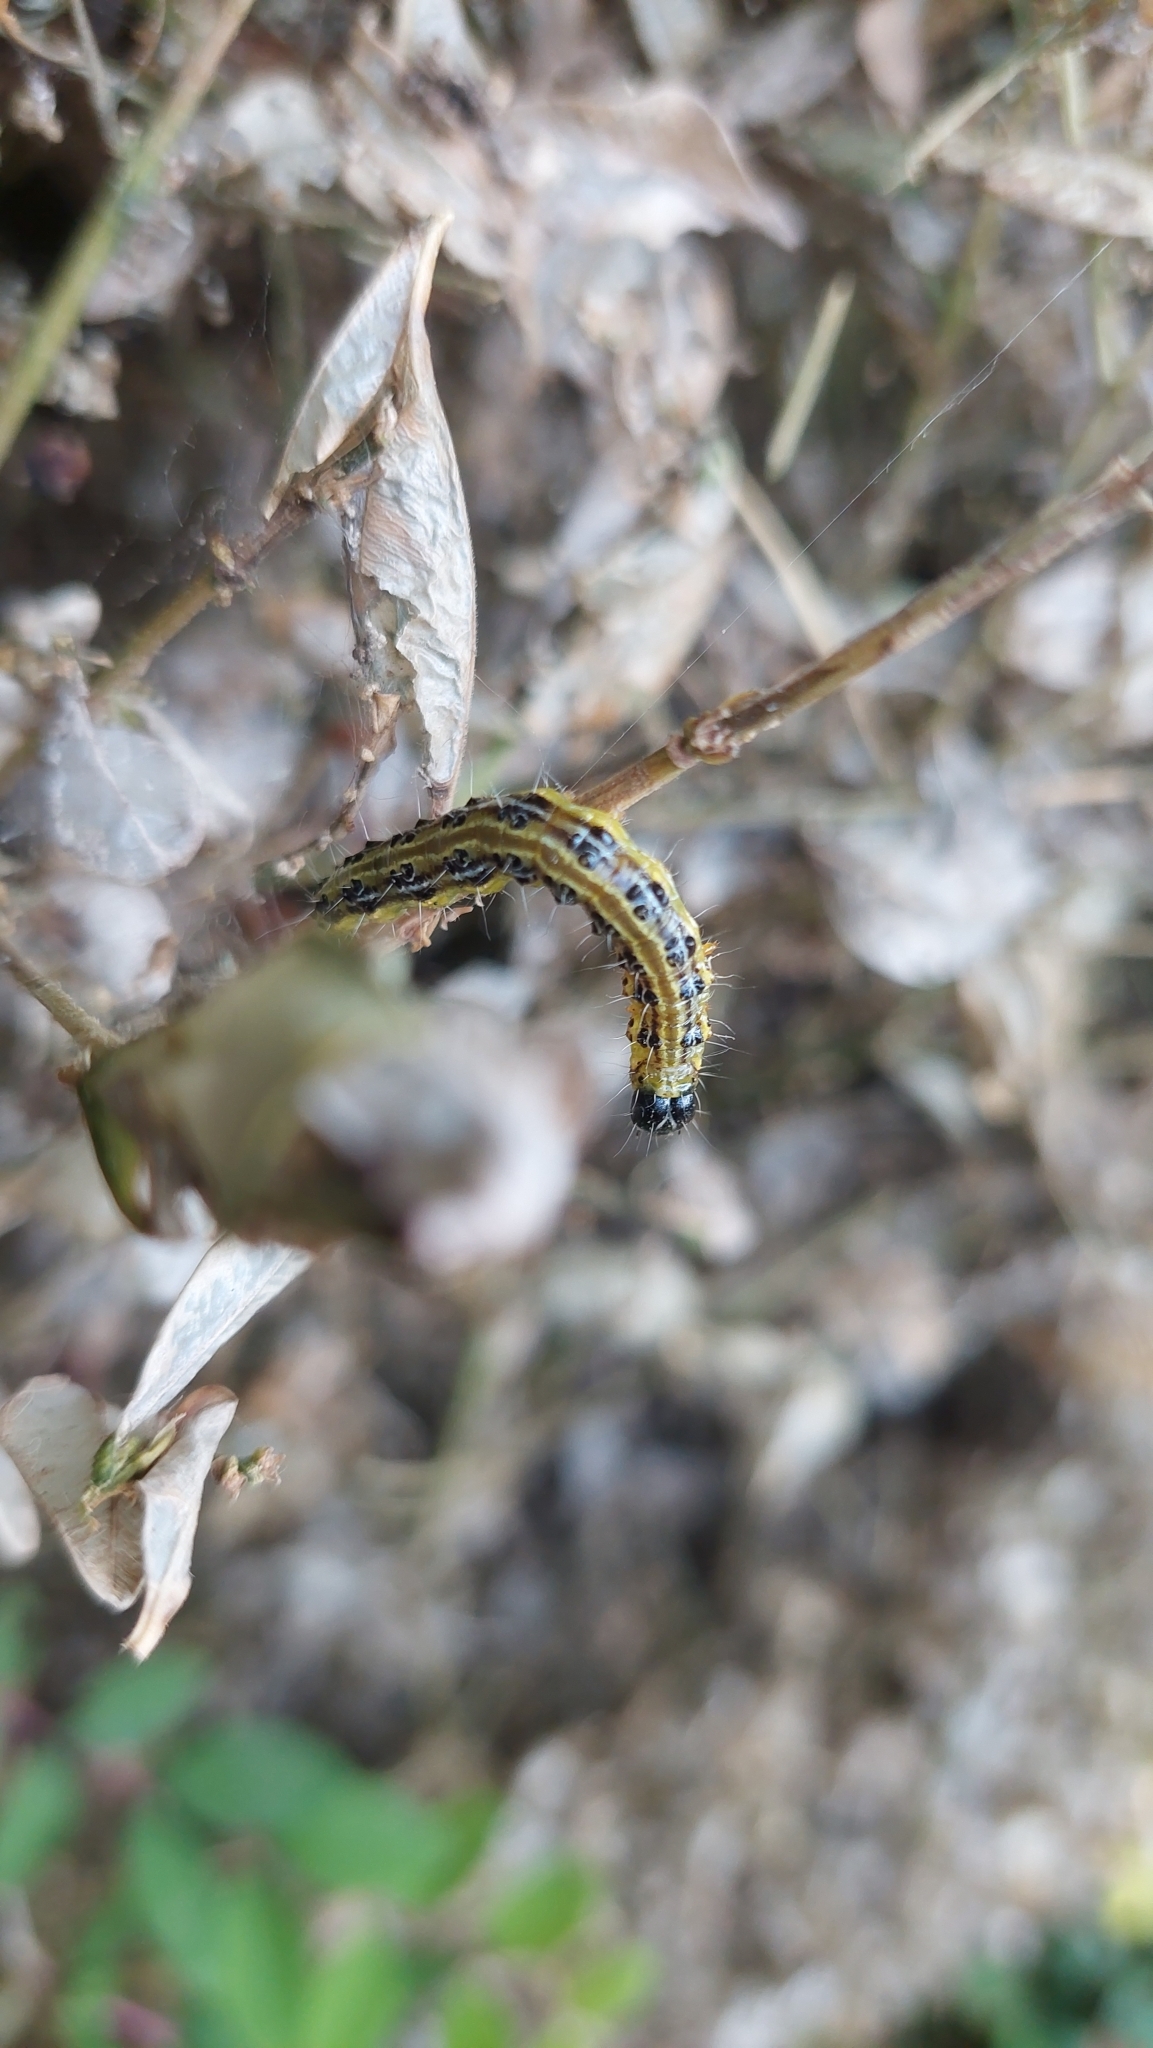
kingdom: Animalia
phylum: Arthropoda
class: Insecta
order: Lepidoptera
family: Crambidae
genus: Cydalima
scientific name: Cydalima perspectalis
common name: Box tree moth
